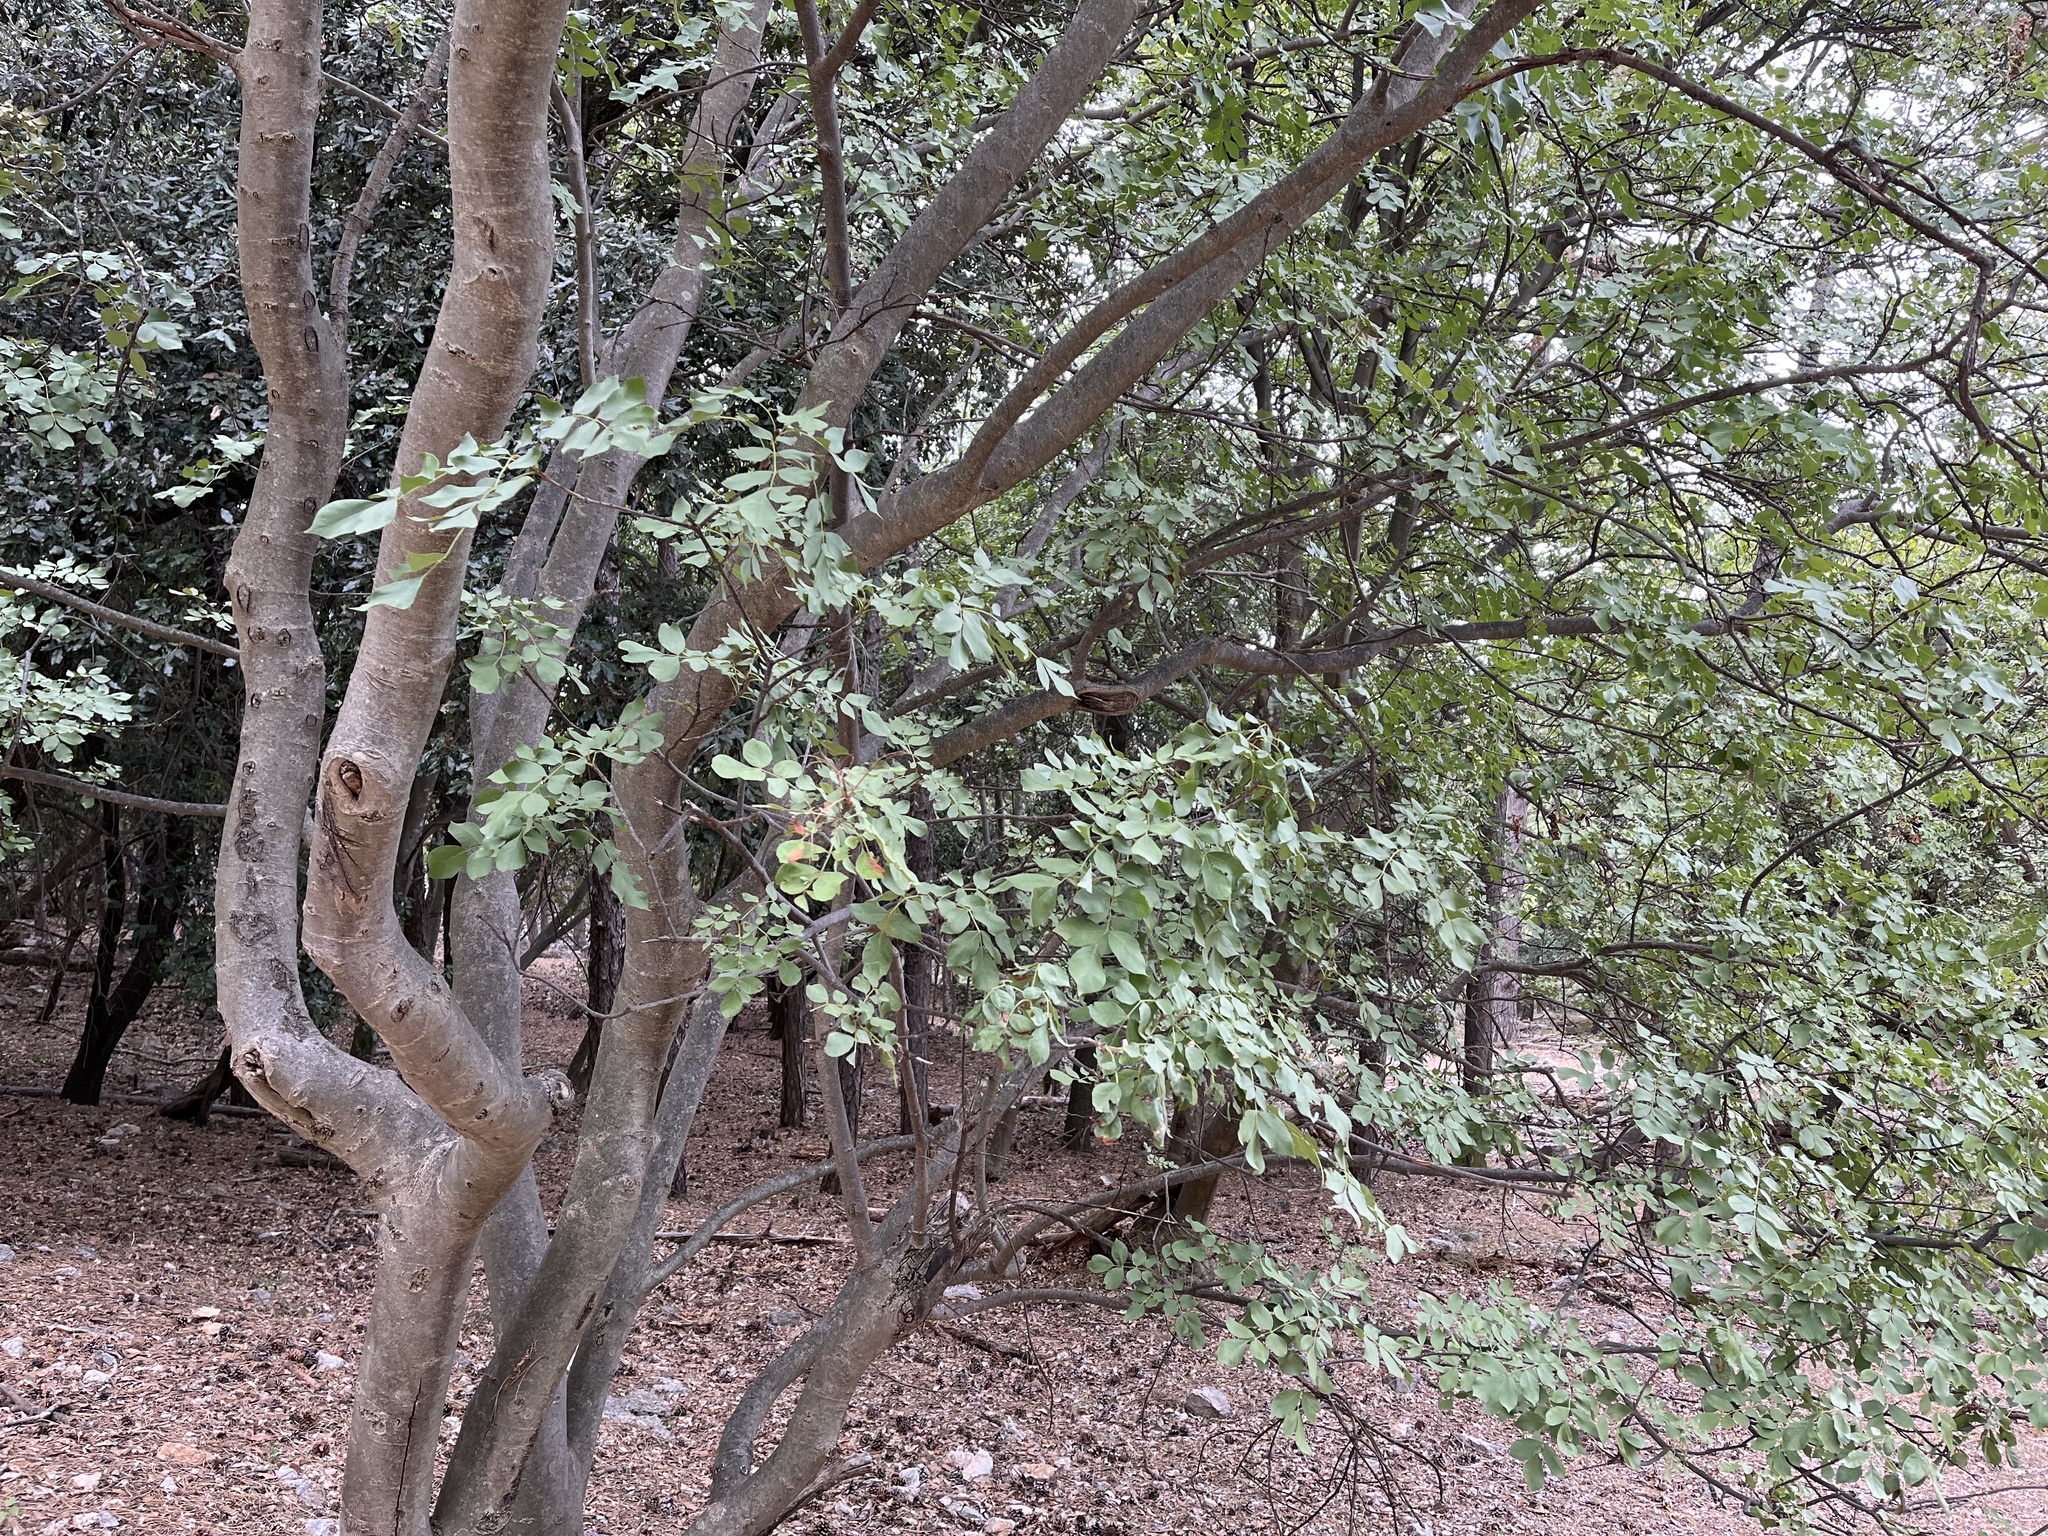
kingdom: Plantae
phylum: Tracheophyta
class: Magnoliopsida
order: Lamiales
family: Oleaceae
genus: Fraxinus
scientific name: Fraxinus ornus
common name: Manna ash
